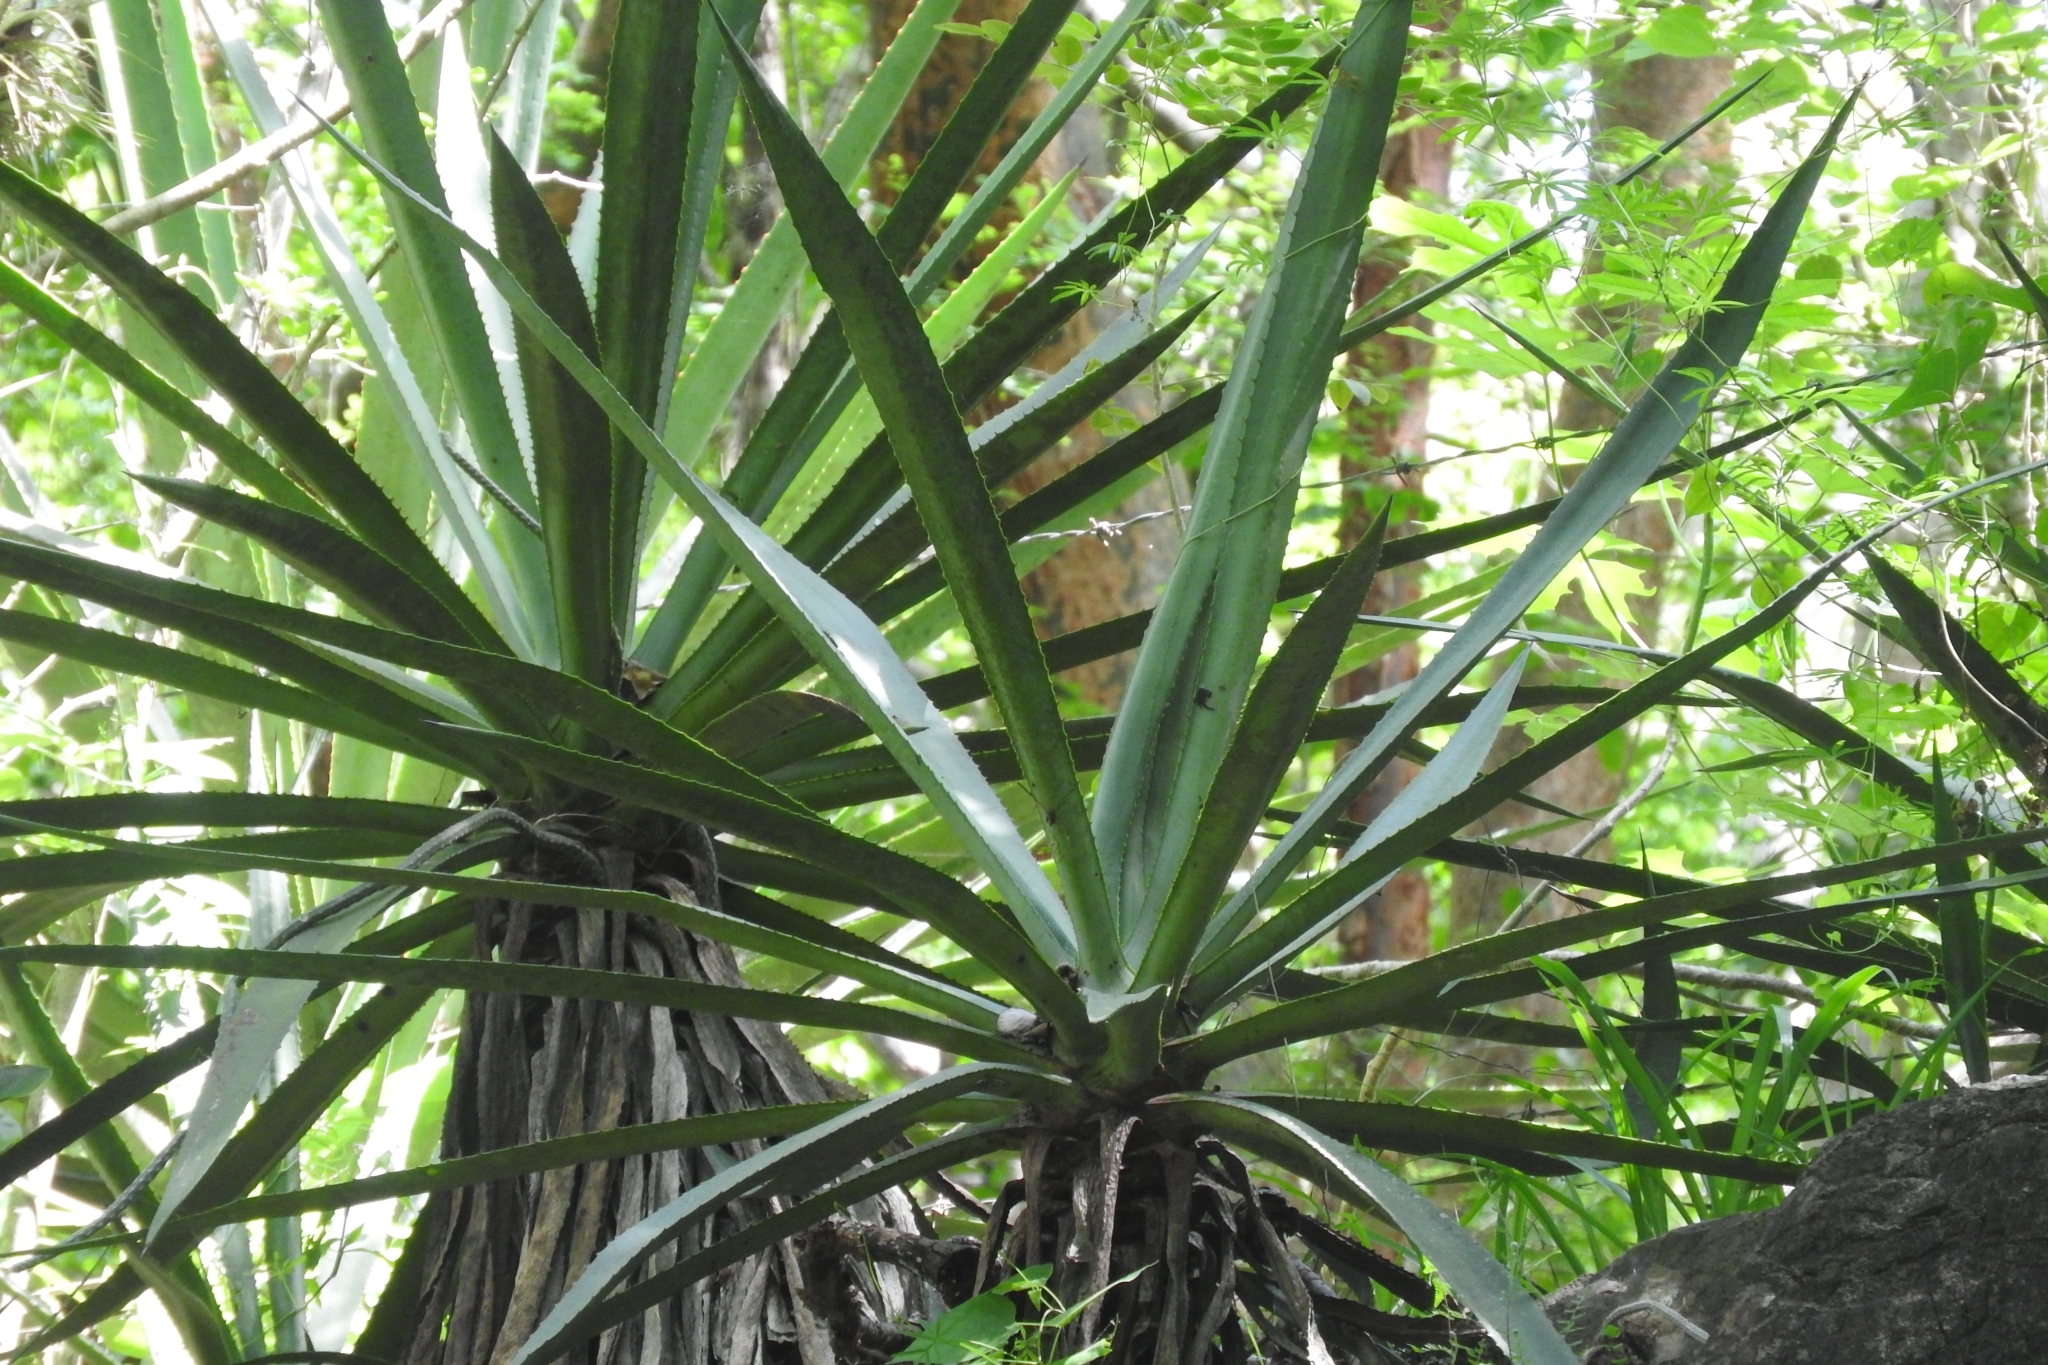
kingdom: Plantae
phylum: Tracheophyta
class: Liliopsida
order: Asparagales
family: Asparagaceae
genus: Agave
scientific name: Agave angustifolia
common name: Mescal agave
